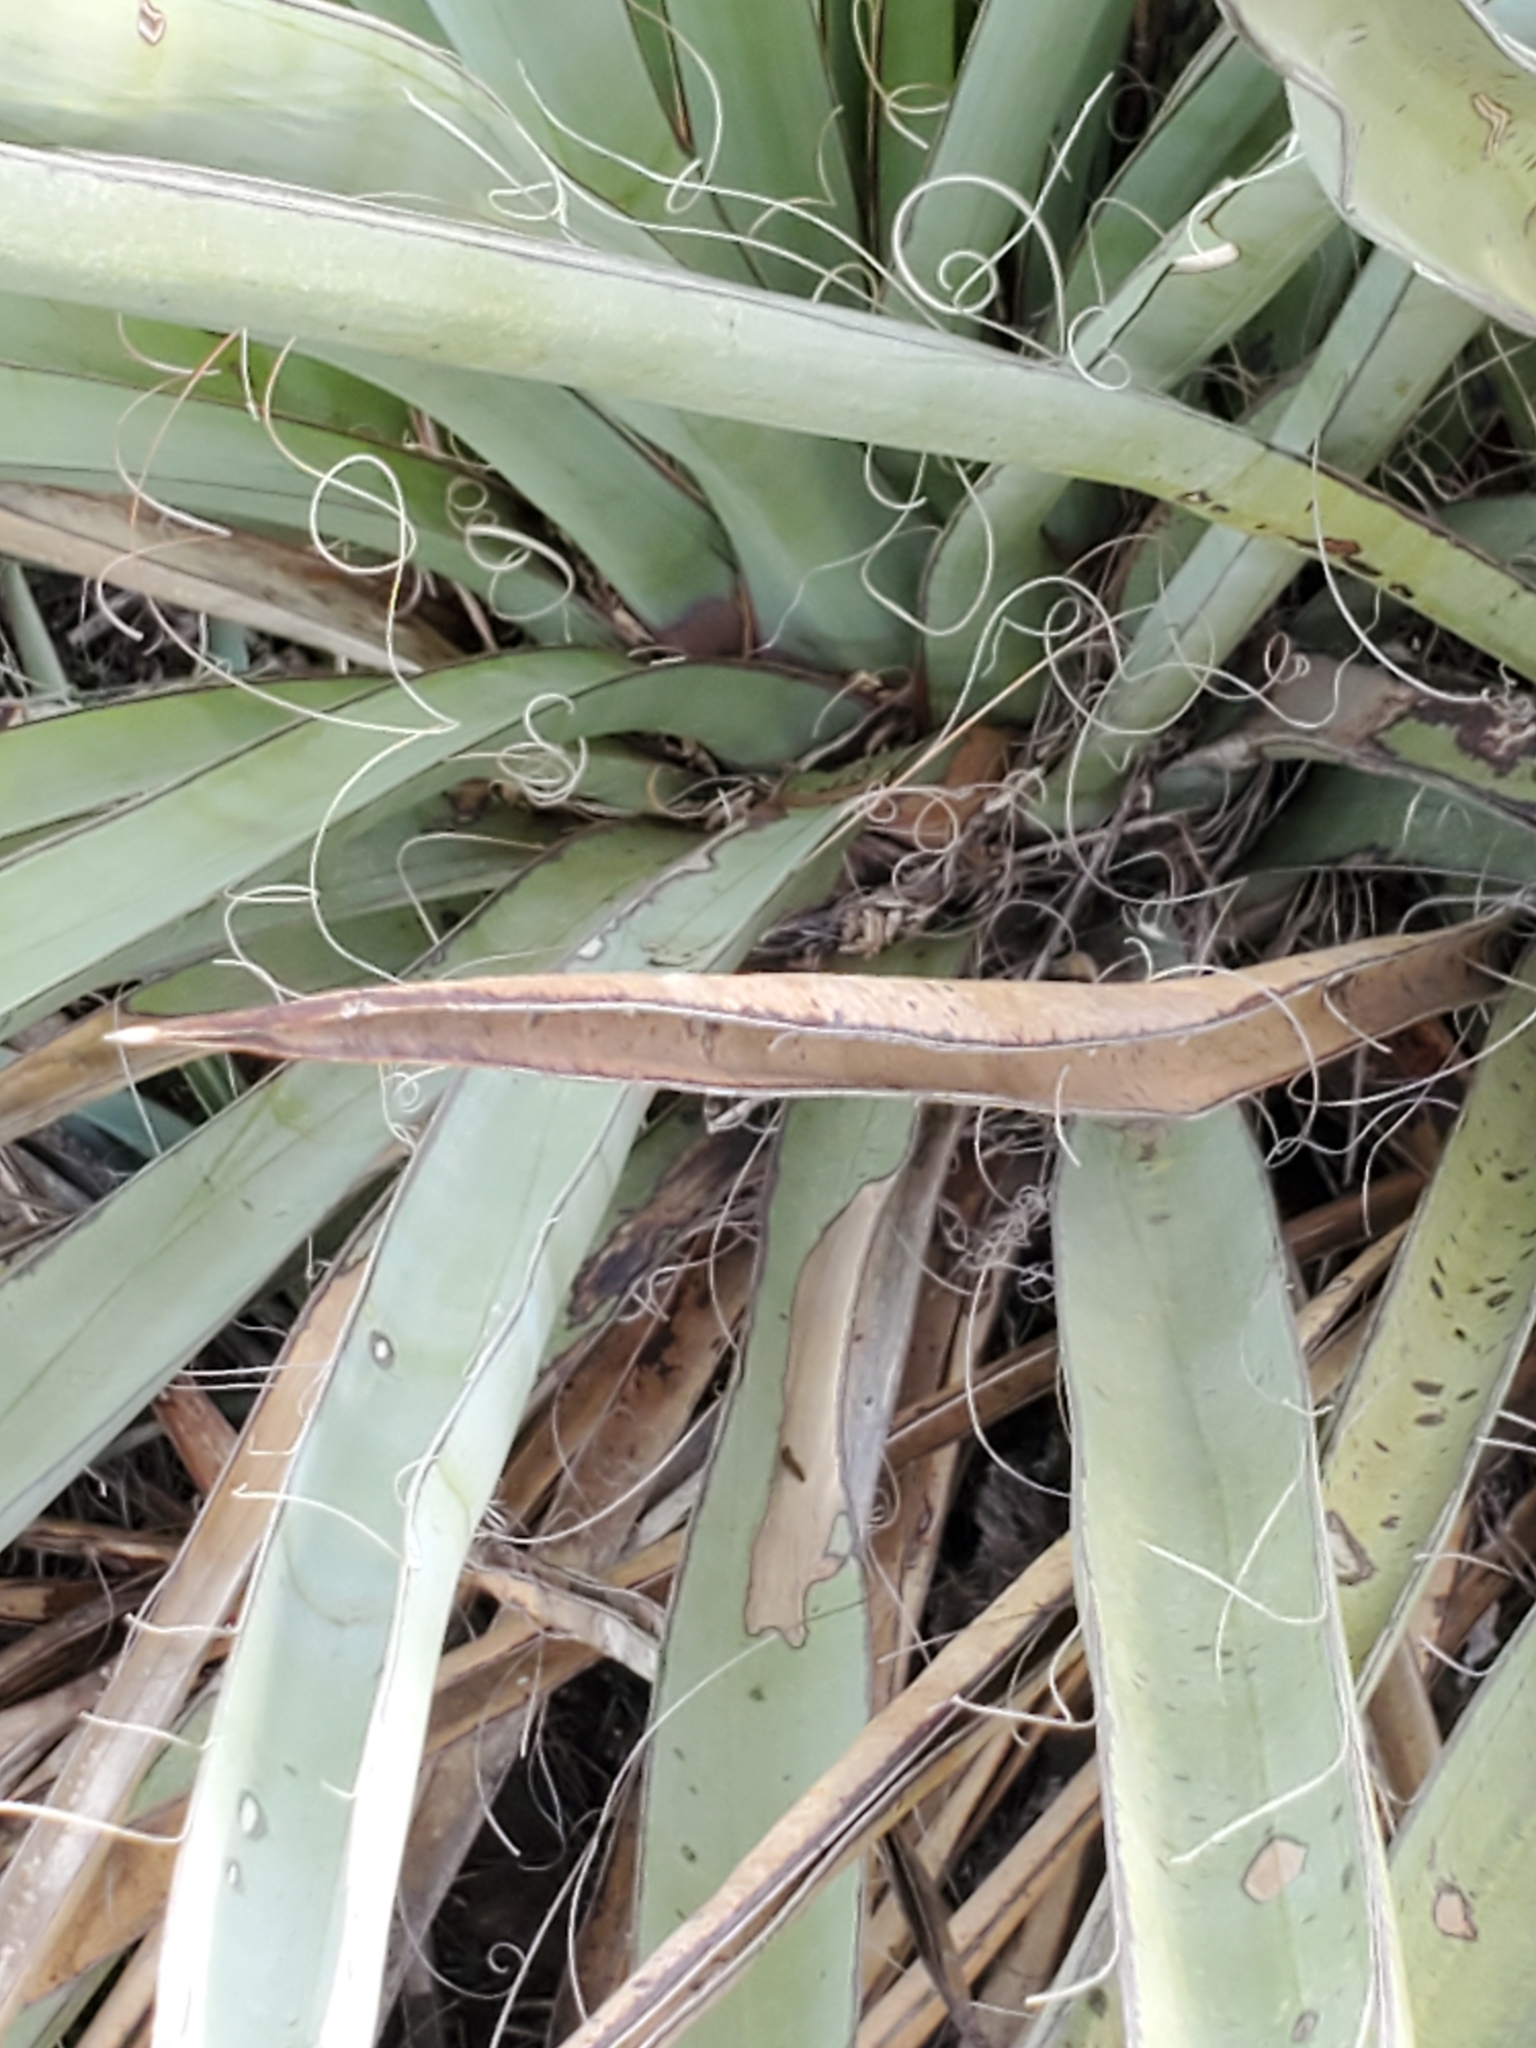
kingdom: Plantae
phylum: Tracheophyta
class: Liliopsida
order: Asparagales
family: Asparagaceae
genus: Yucca
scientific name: Yucca treculiana
